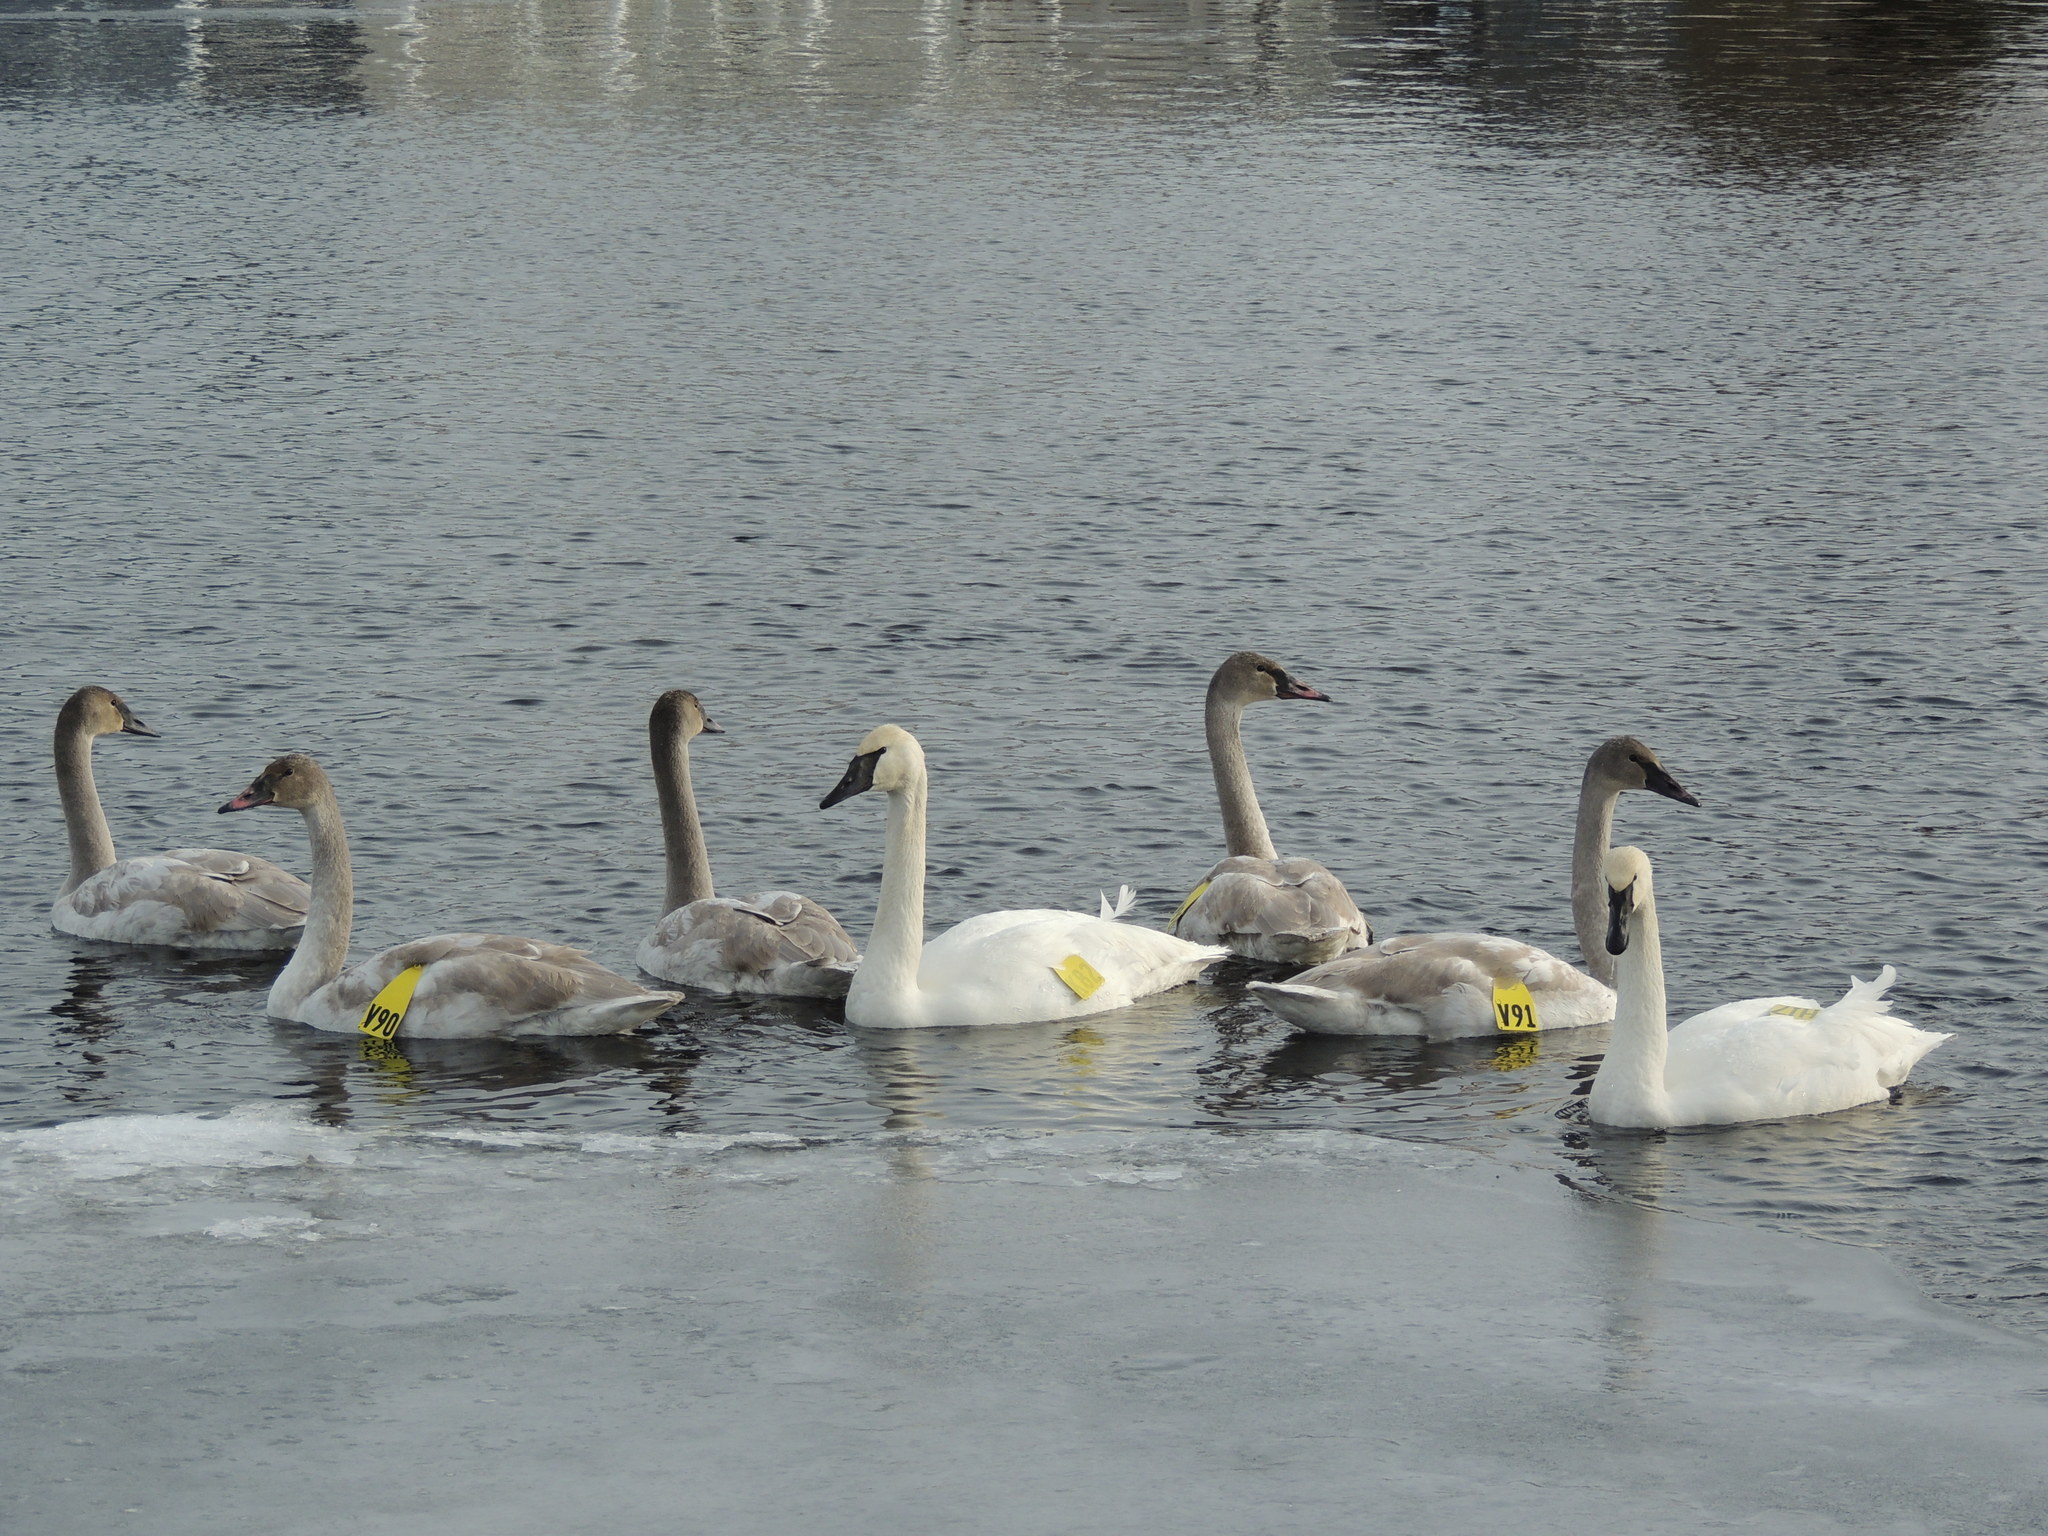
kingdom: Animalia
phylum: Chordata
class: Aves
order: Anseriformes
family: Anatidae
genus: Cygnus
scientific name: Cygnus buccinator
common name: Trumpeter swan
